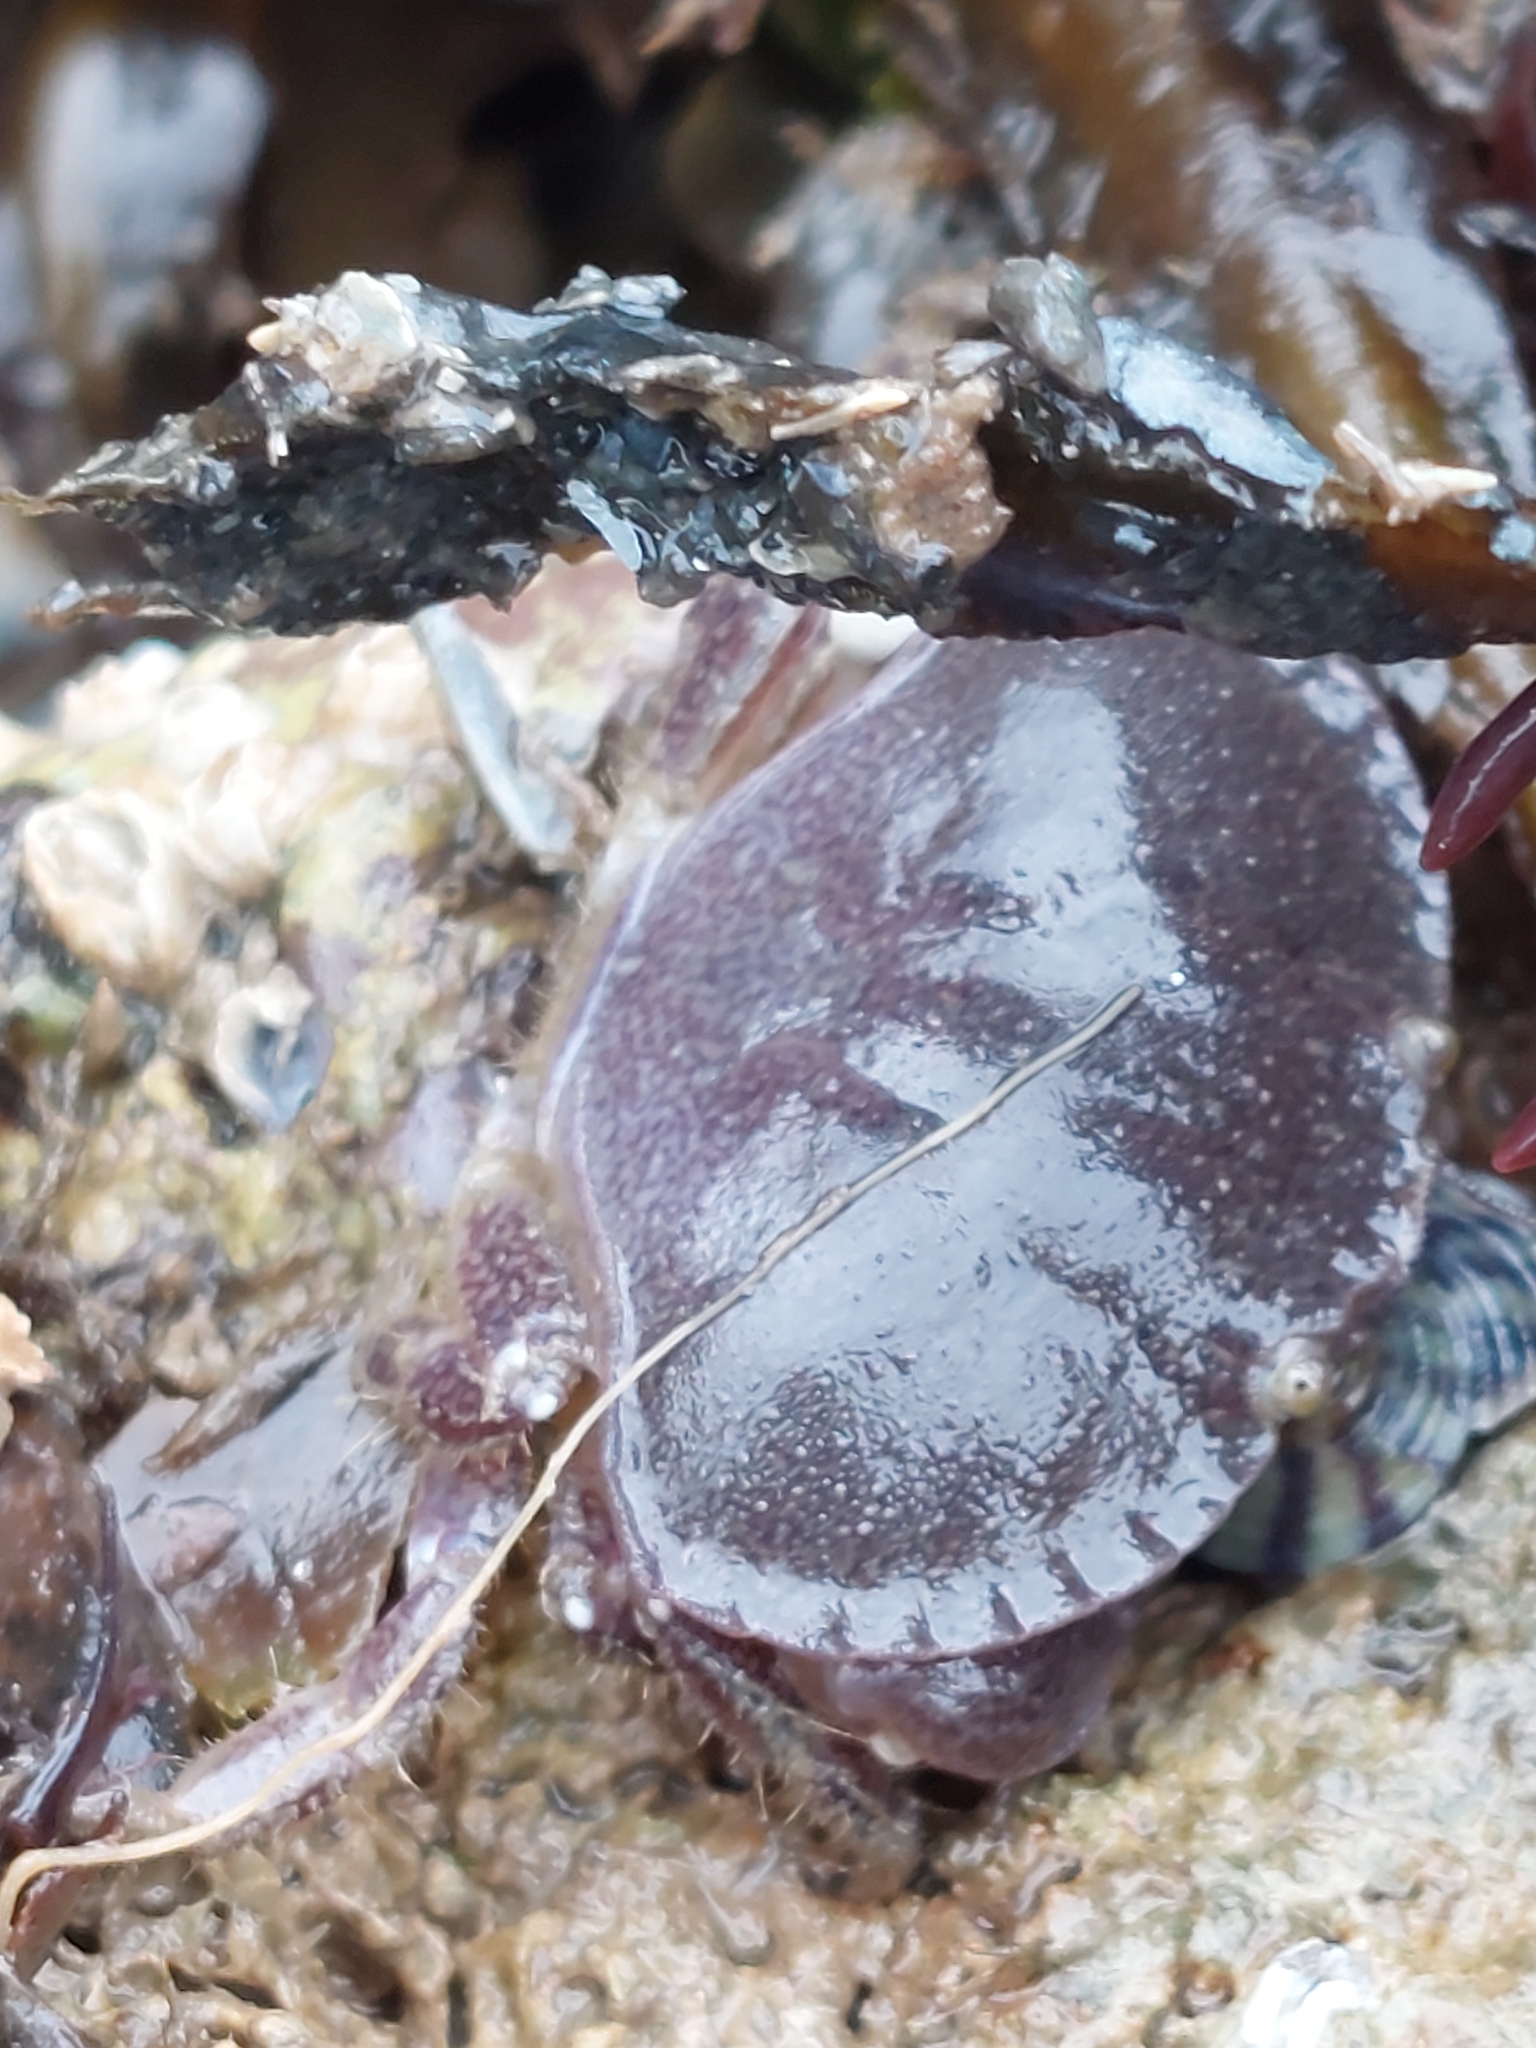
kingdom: Animalia
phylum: Arthropoda
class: Malacostraca
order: Decapoda
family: Cancridae
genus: Cancer
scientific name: Cancer pagurus
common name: Edible crab
